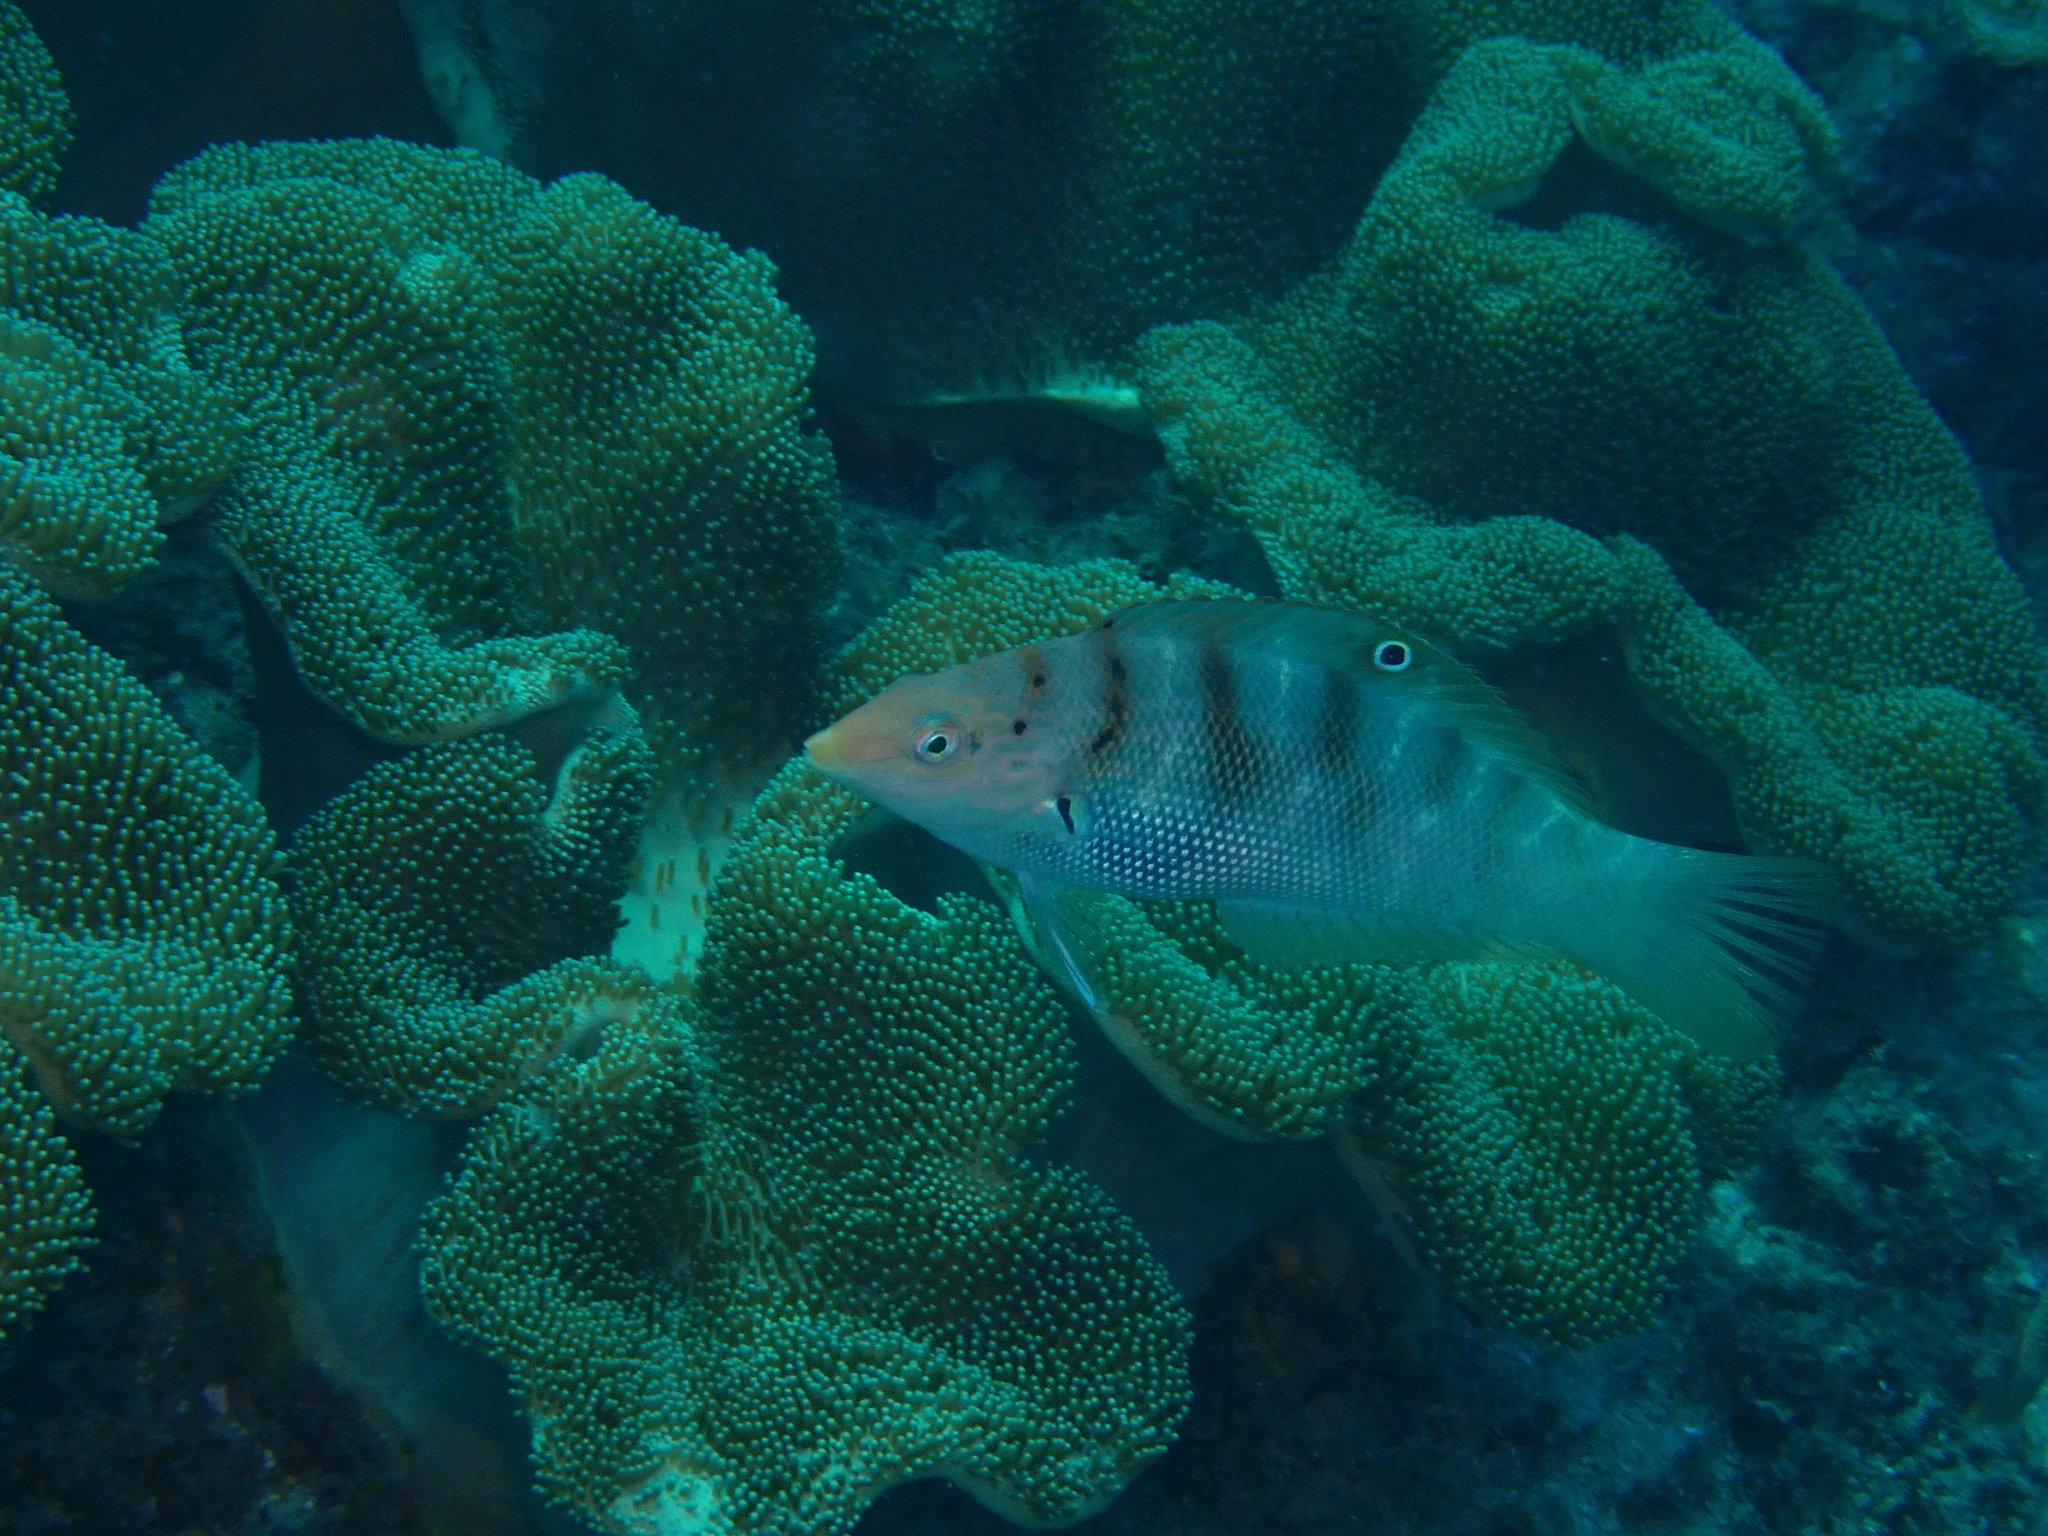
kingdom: Animalia
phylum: Chordata
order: Perciformes
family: Labridae
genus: Coris
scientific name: Coris batuensis
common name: Batu coris
